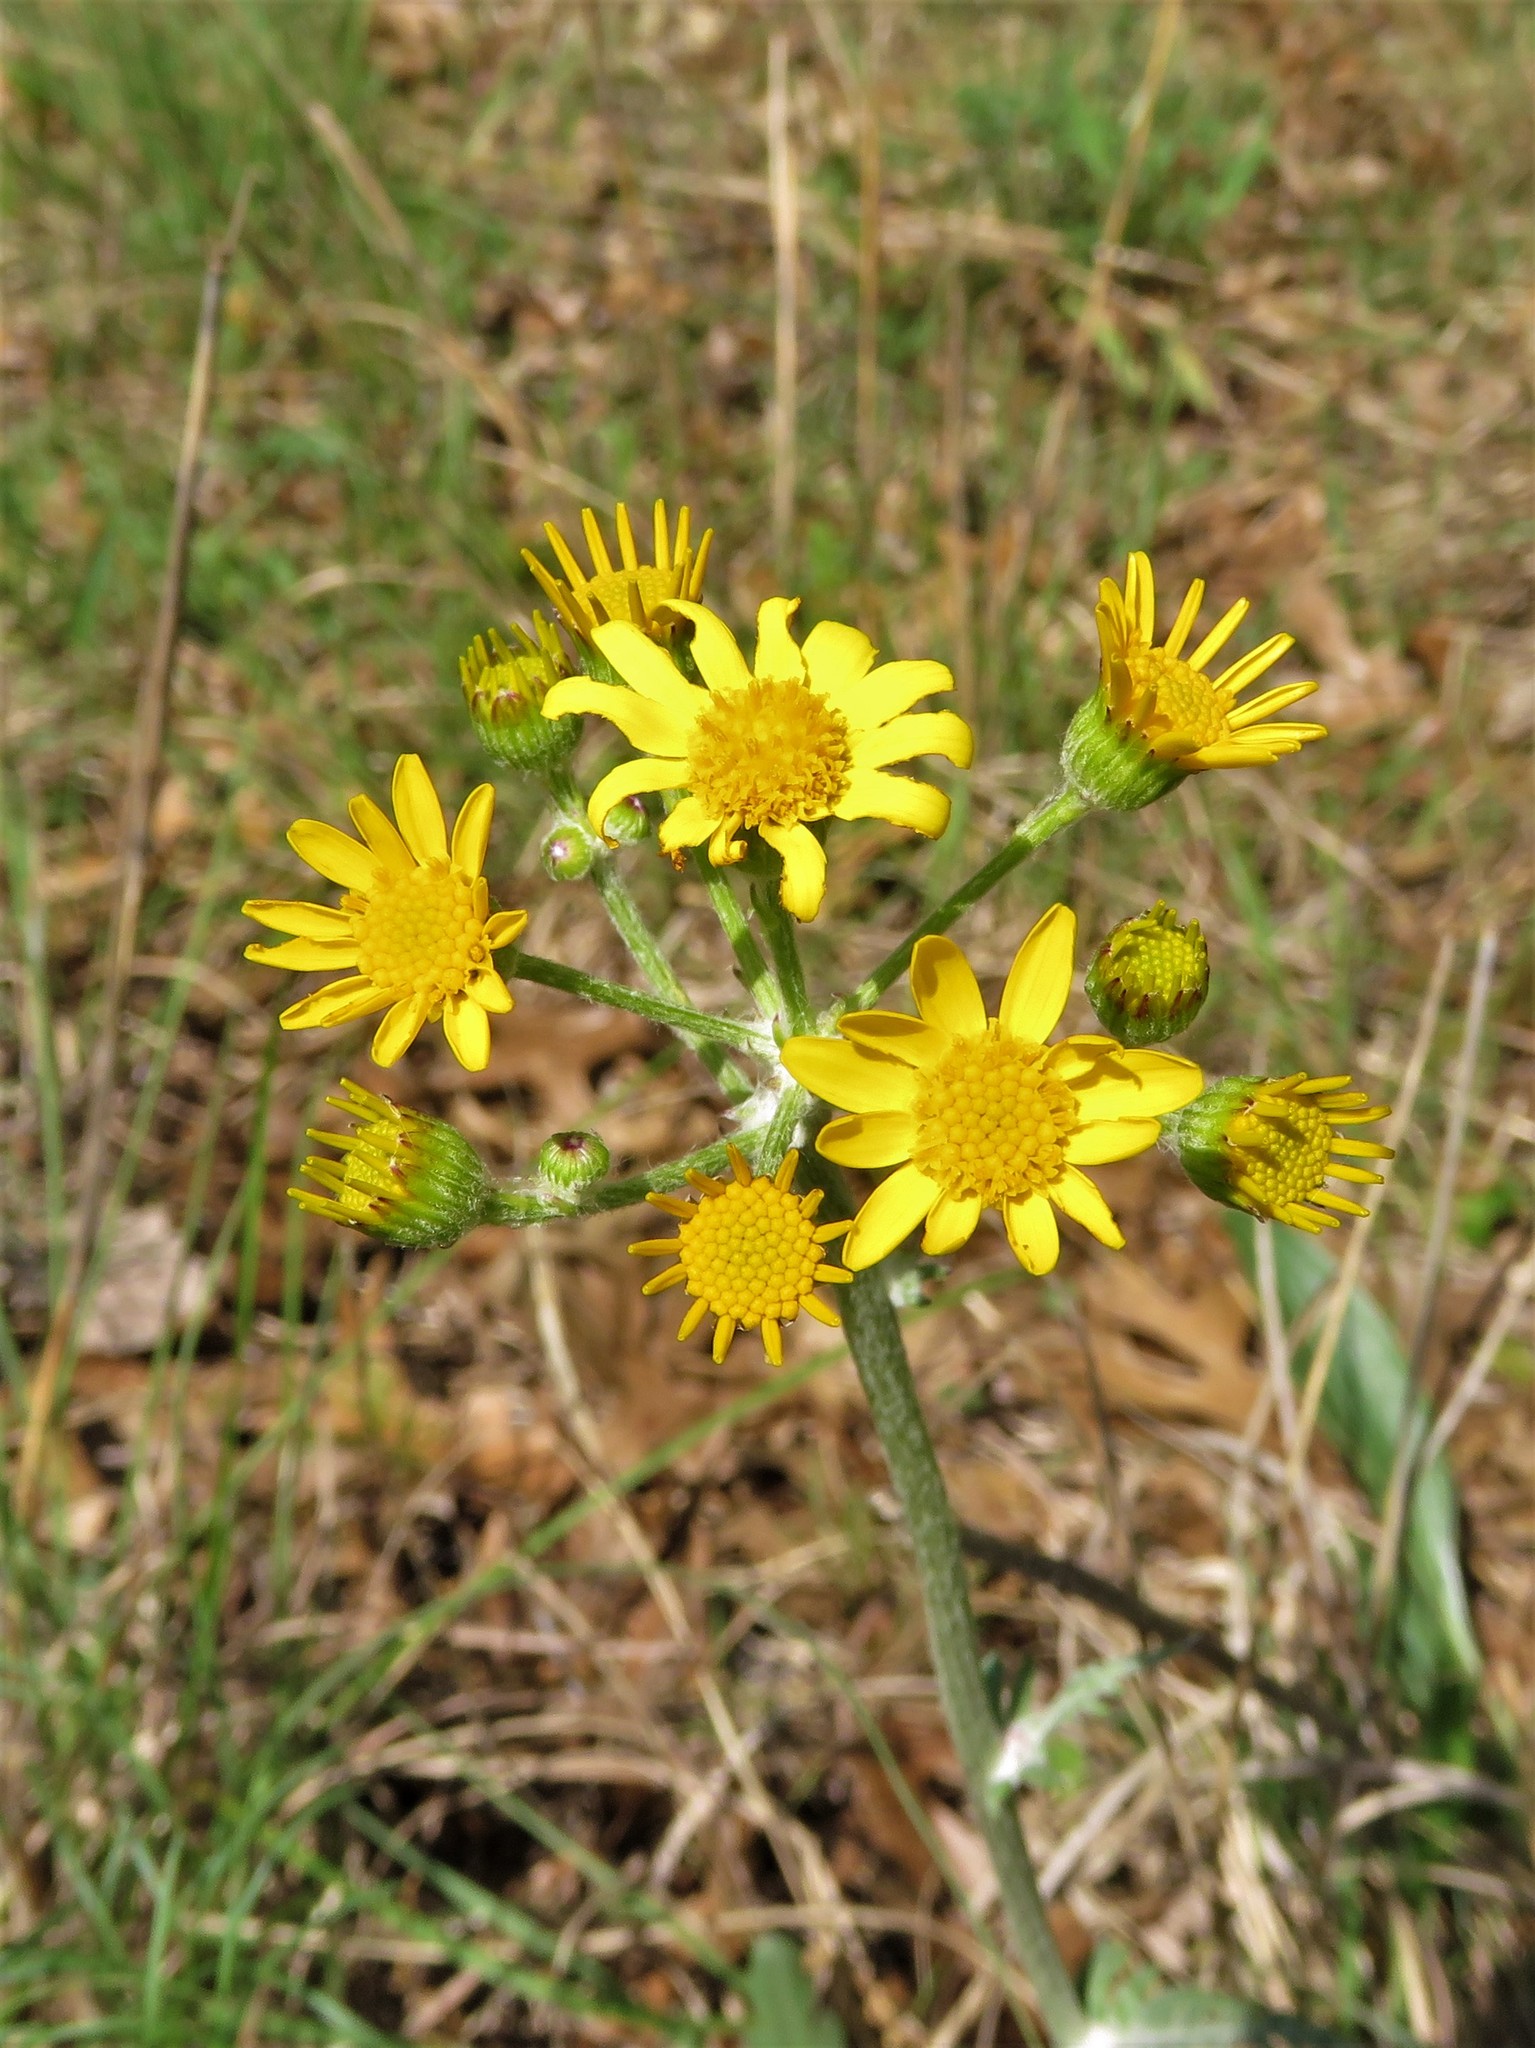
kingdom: Plantae
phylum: Tracheophyta
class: Magnoliopsida
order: Asterales
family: Asteraceae
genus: Packera
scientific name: Packera plattensis
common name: Prairie groundsel
